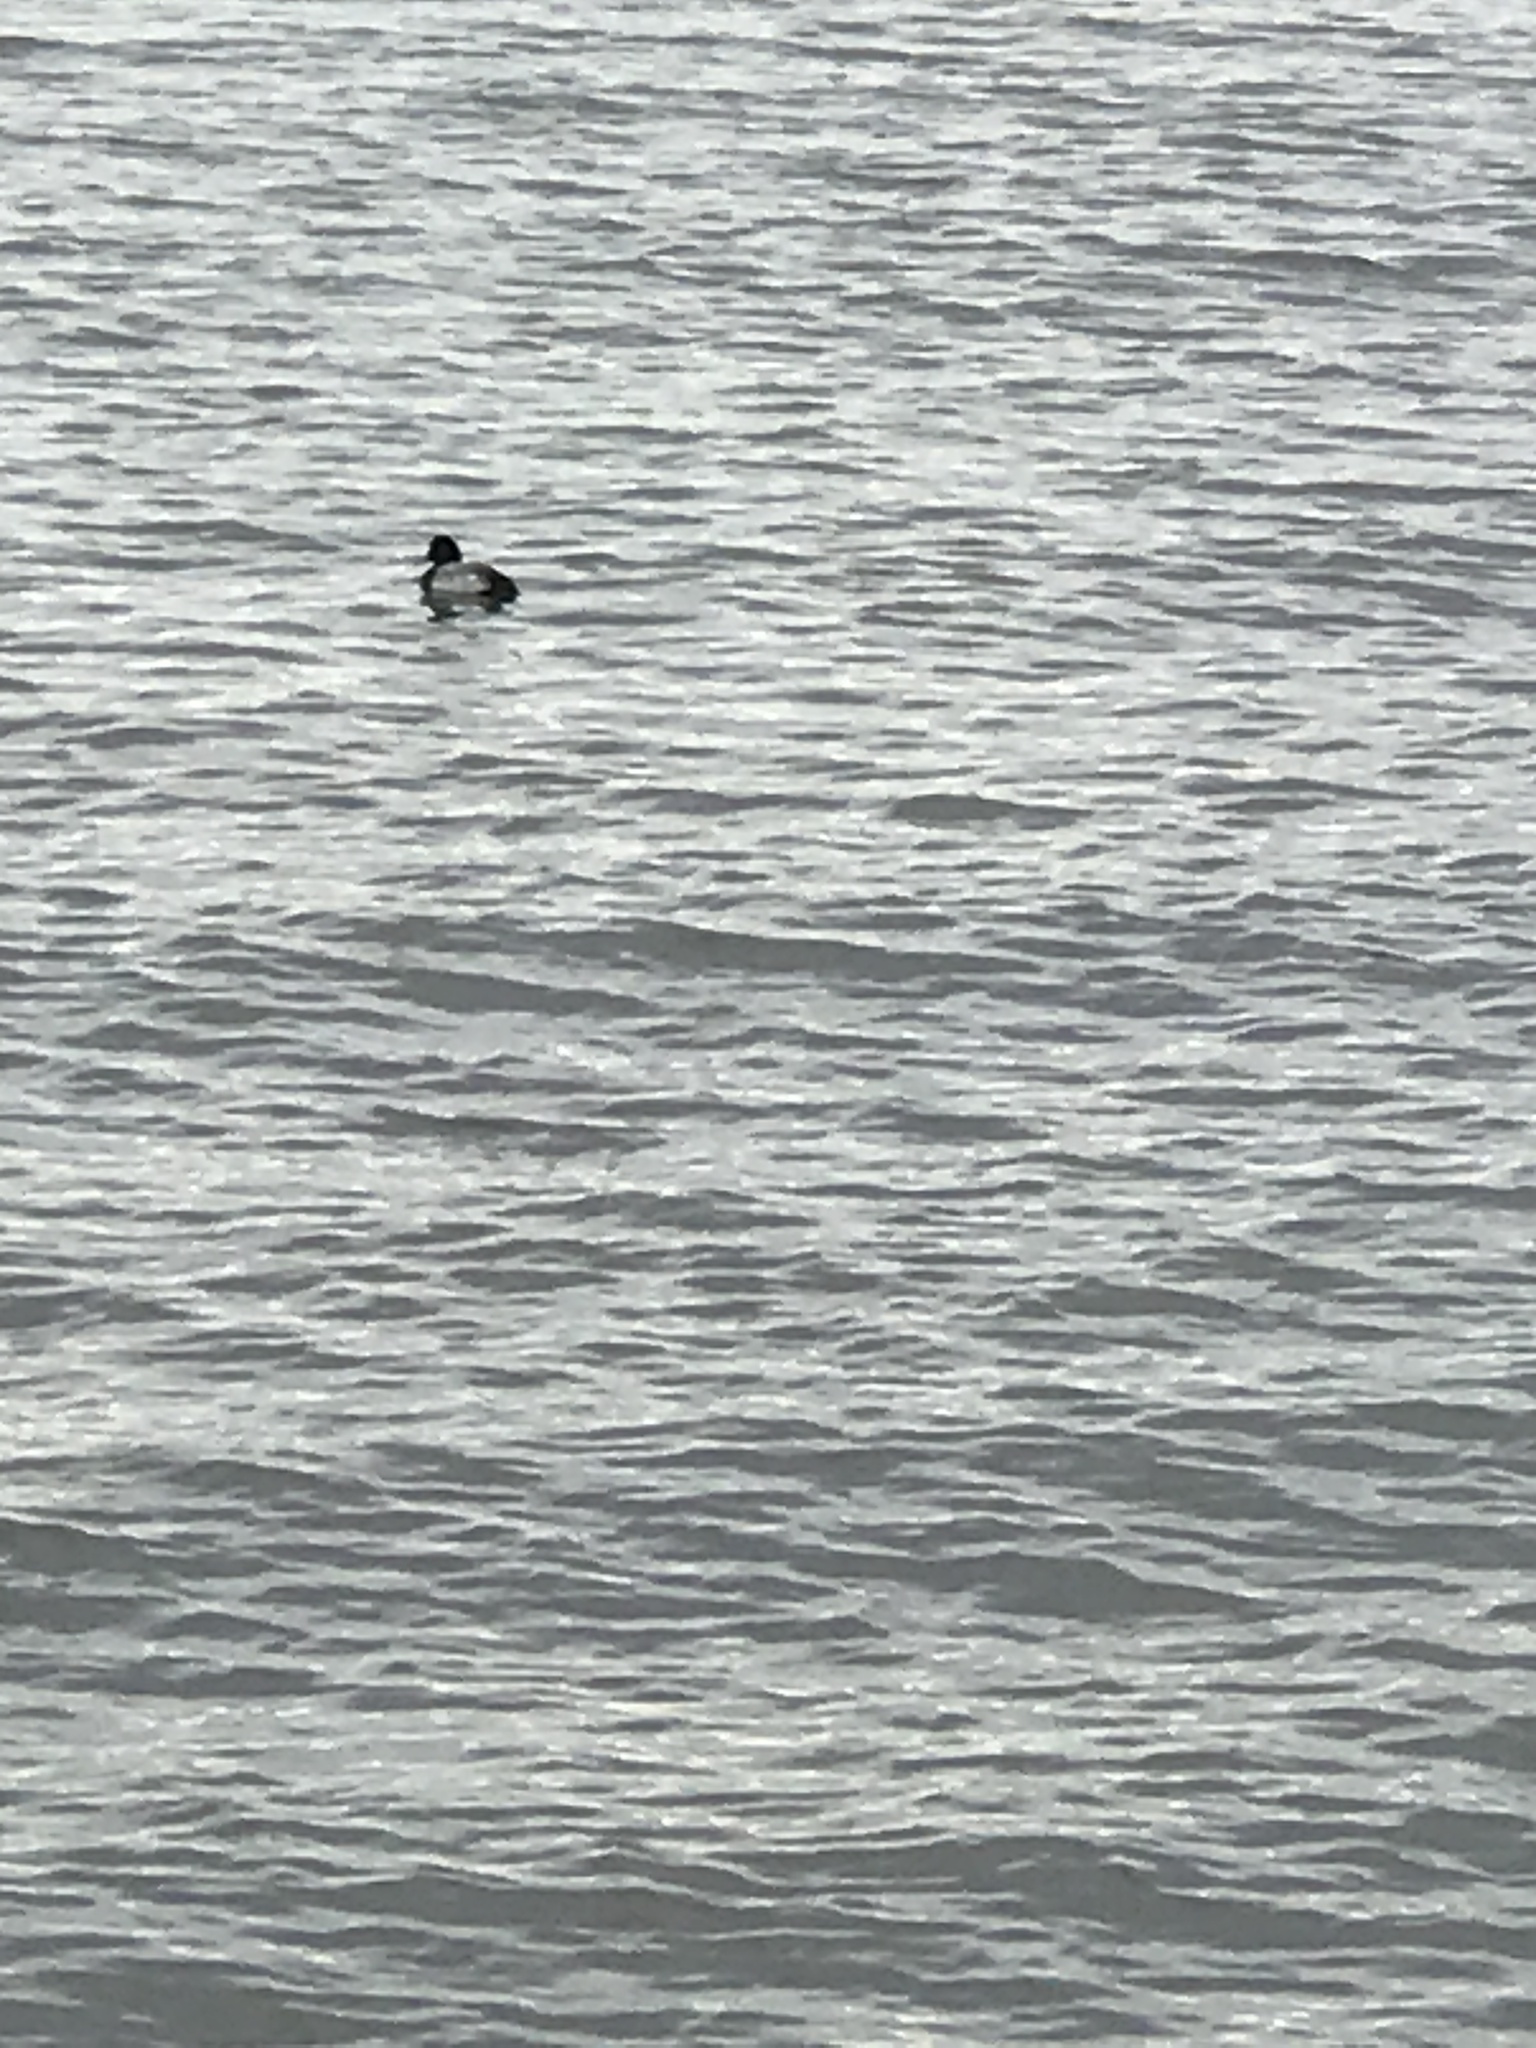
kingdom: Animalia
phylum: Chordata
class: Aves
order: Anseriformes
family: Anatidae
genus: Aythya
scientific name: Aythya affinis
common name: Lesser scaup
